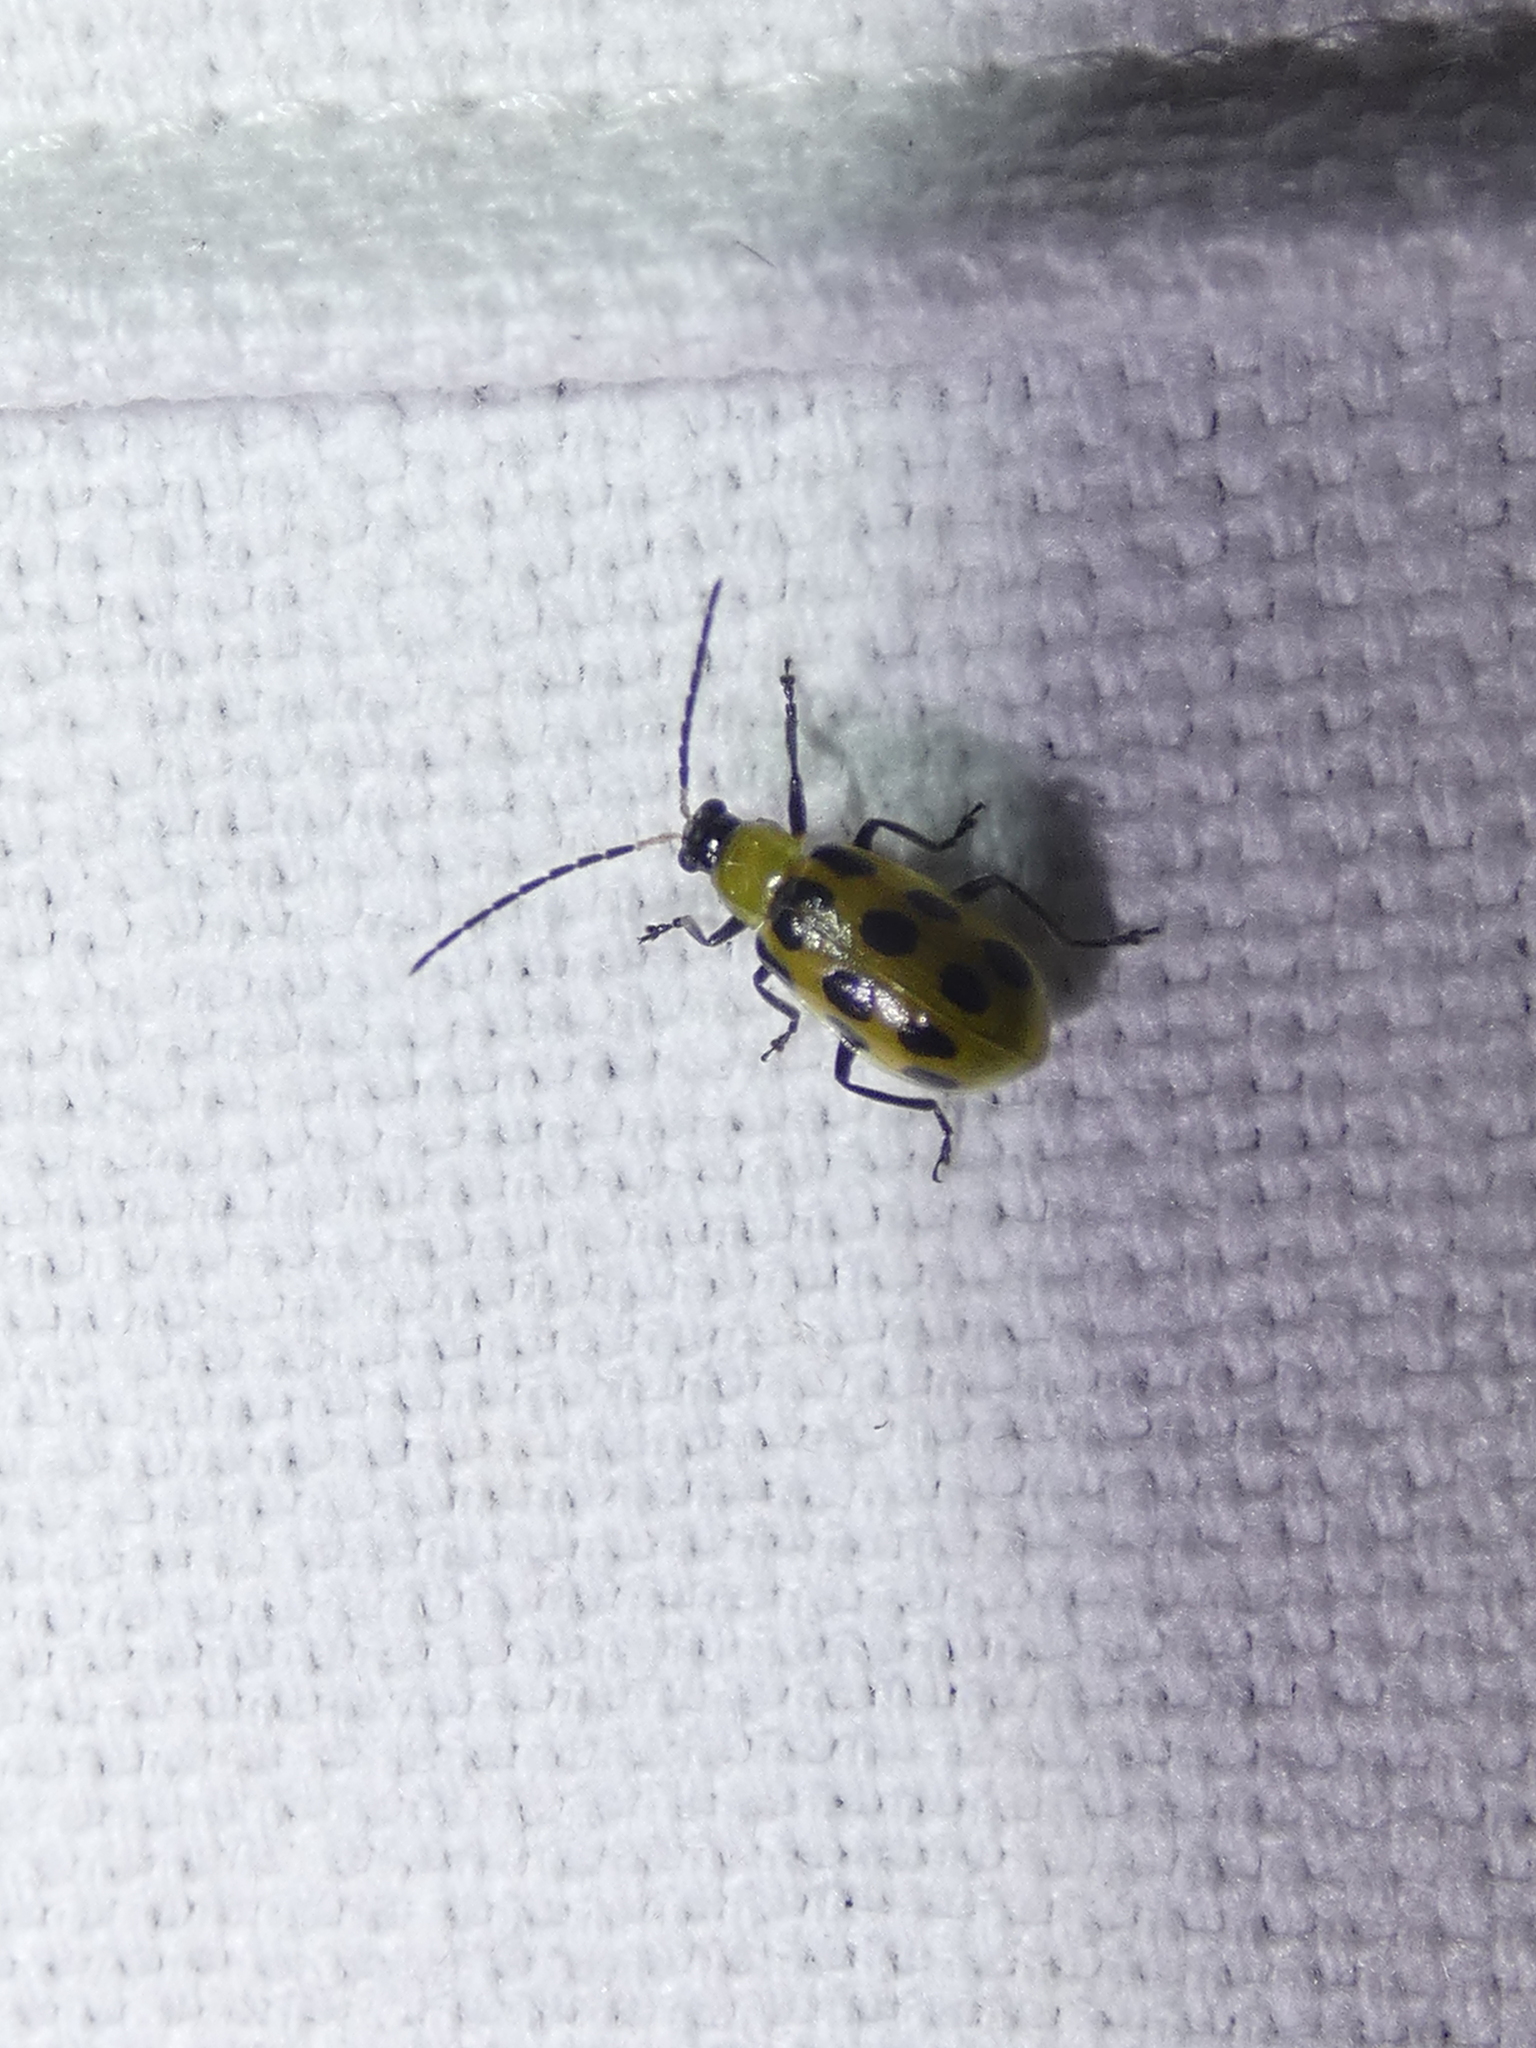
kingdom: Animalia
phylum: Arthropoda
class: Insecta
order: Coleoptera
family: Chrysomelidae
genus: Diabrotica
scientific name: Diabrotica undecimpunctata
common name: Spotted cucumber beetle
